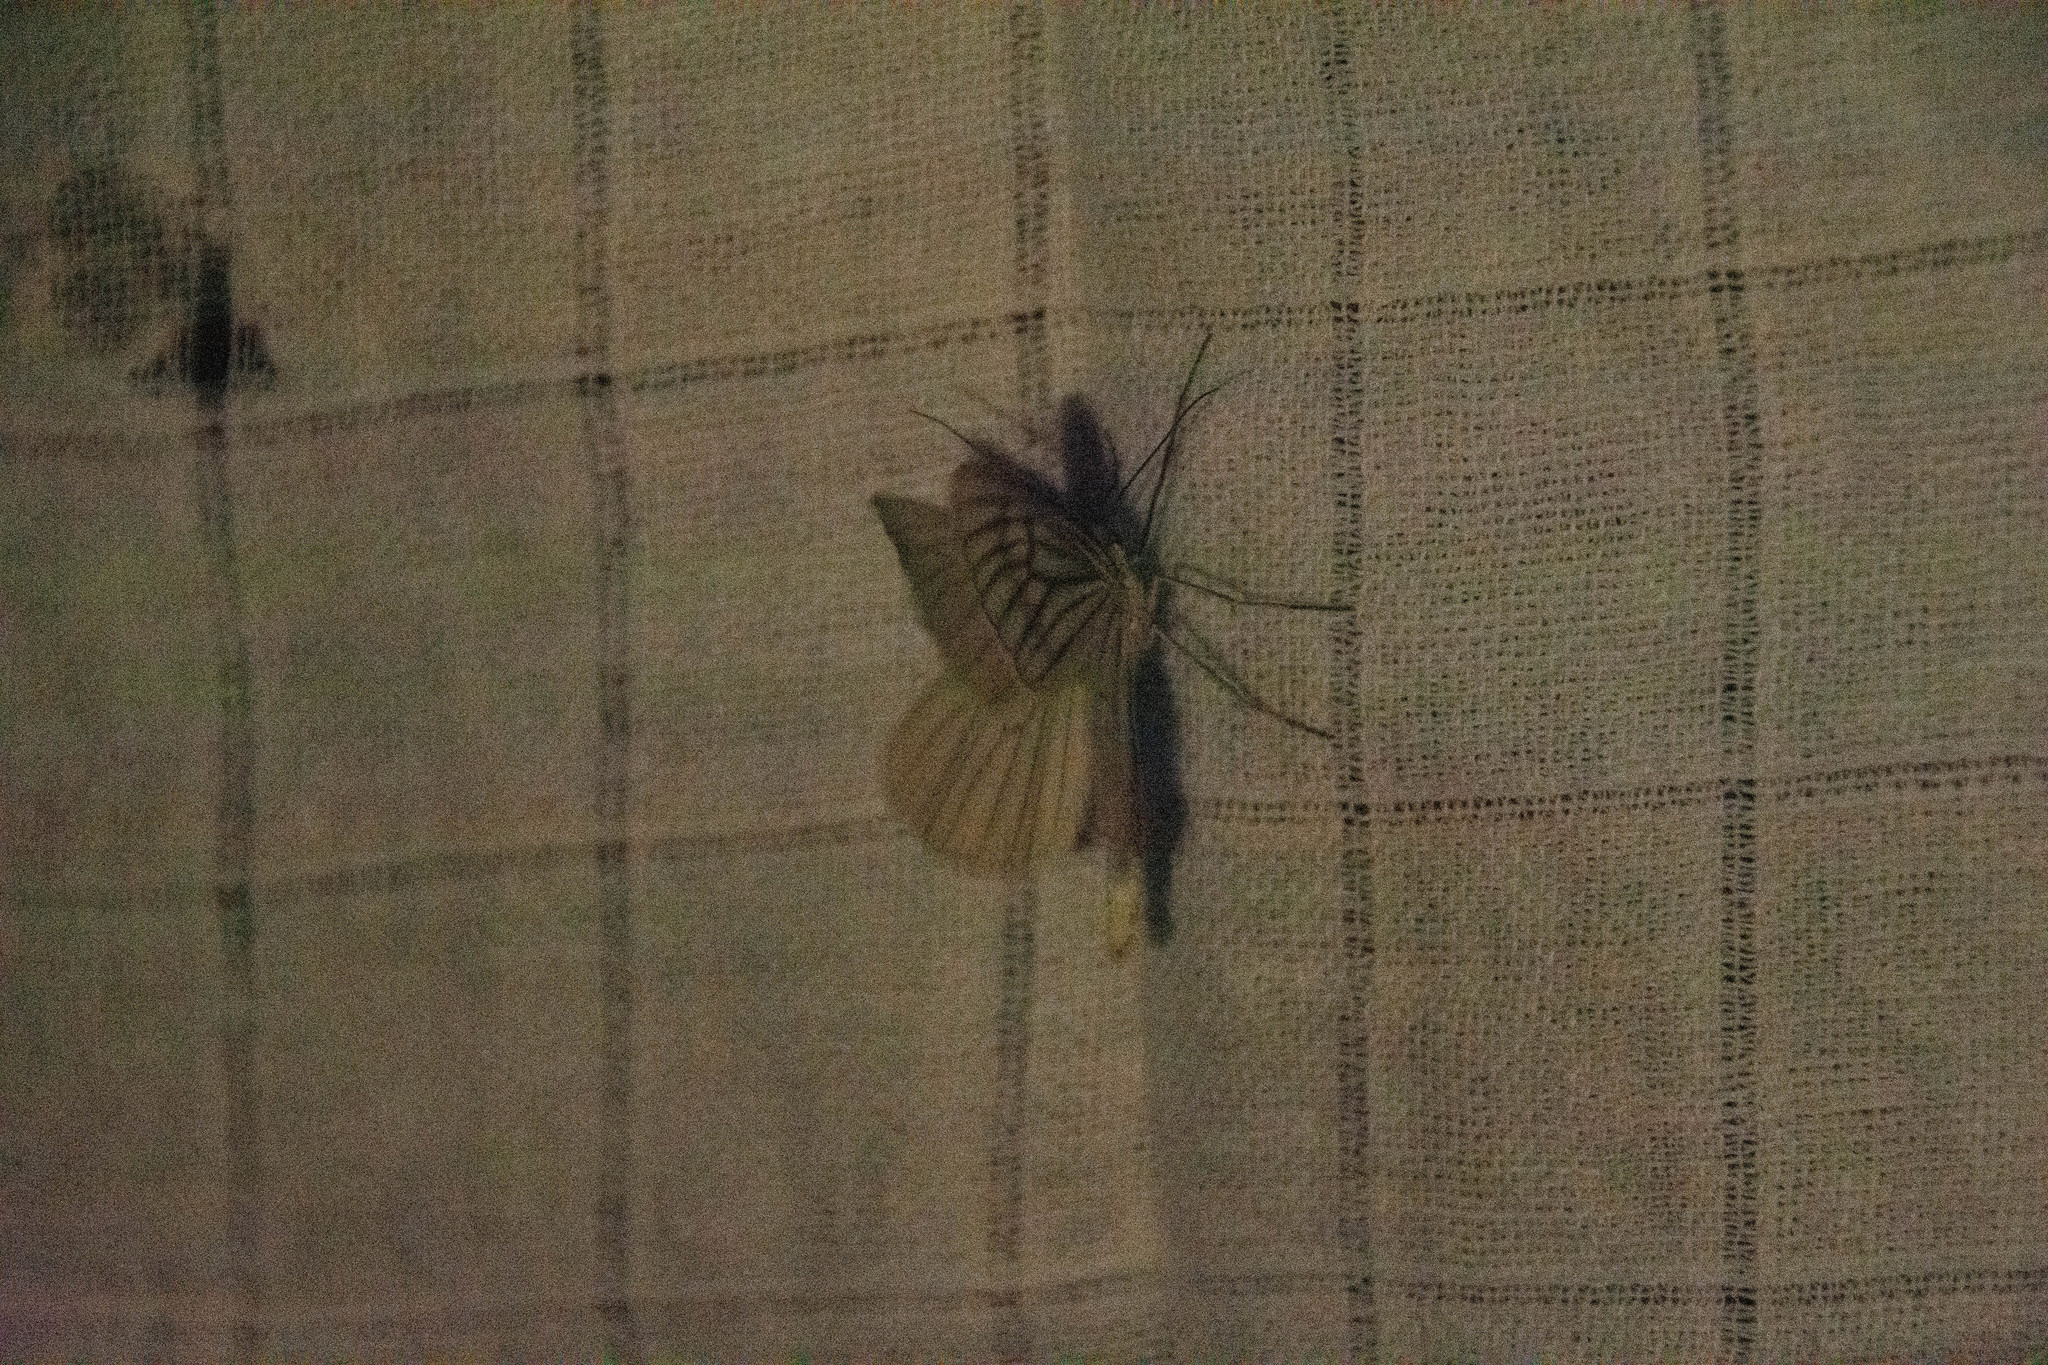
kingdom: Animalia
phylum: Arthropoda
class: Insecta
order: Lepidoptera
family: Geometridae
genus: Siona
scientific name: Siona lineata
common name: Black-veined moth
